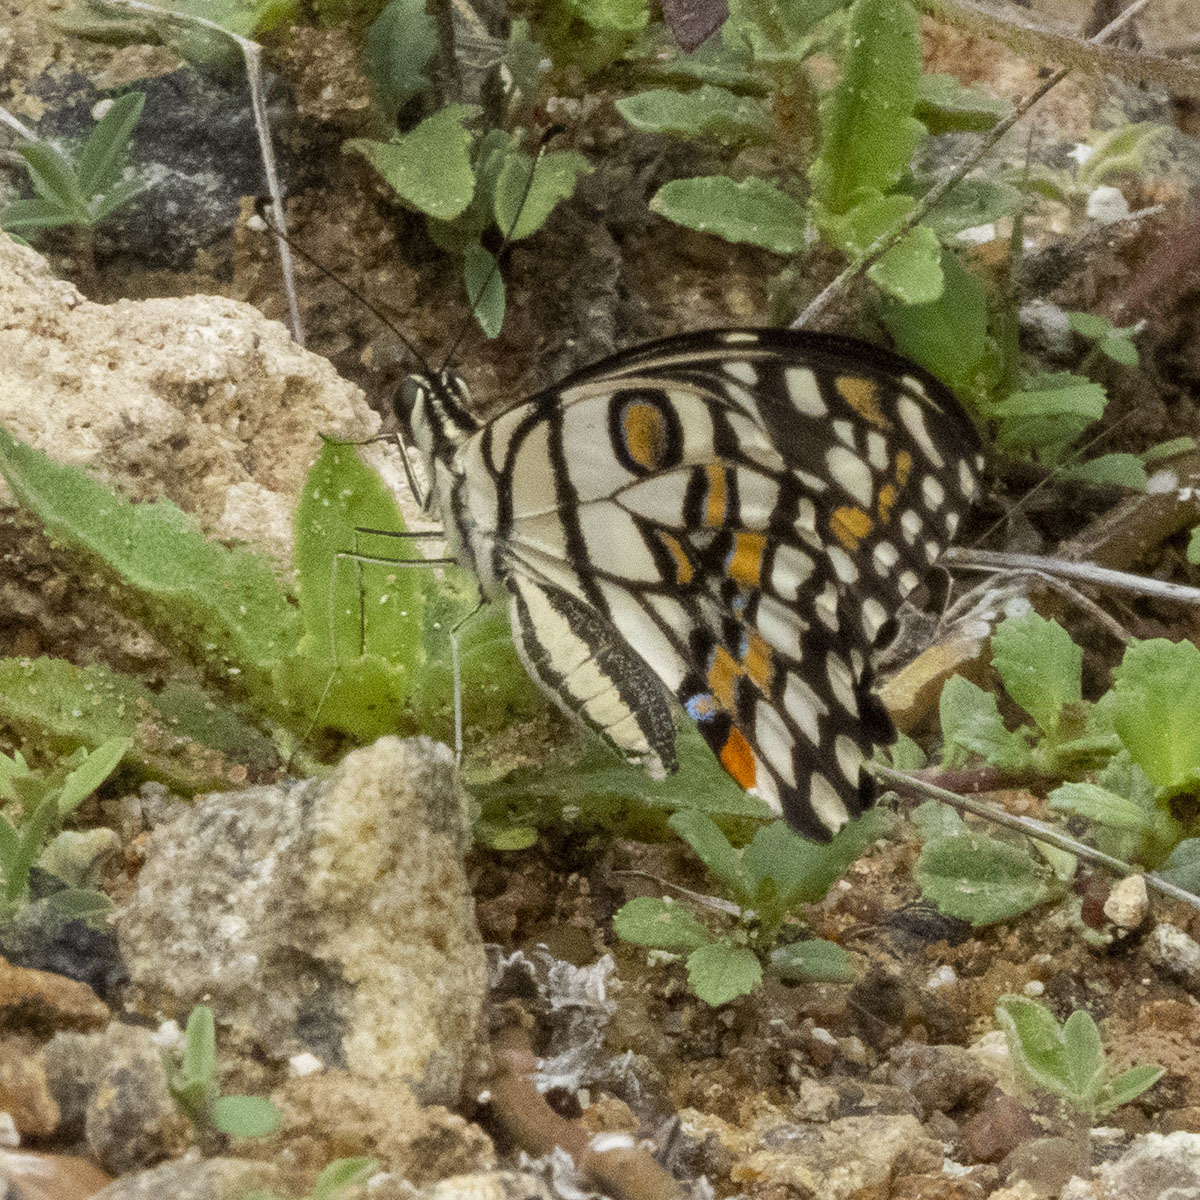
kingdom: Animalia
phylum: Arthropoda
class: Insecta
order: Lepidoptera
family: Papilionidae
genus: Papilio
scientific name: Papilio demoleus
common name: Lime butterfly
